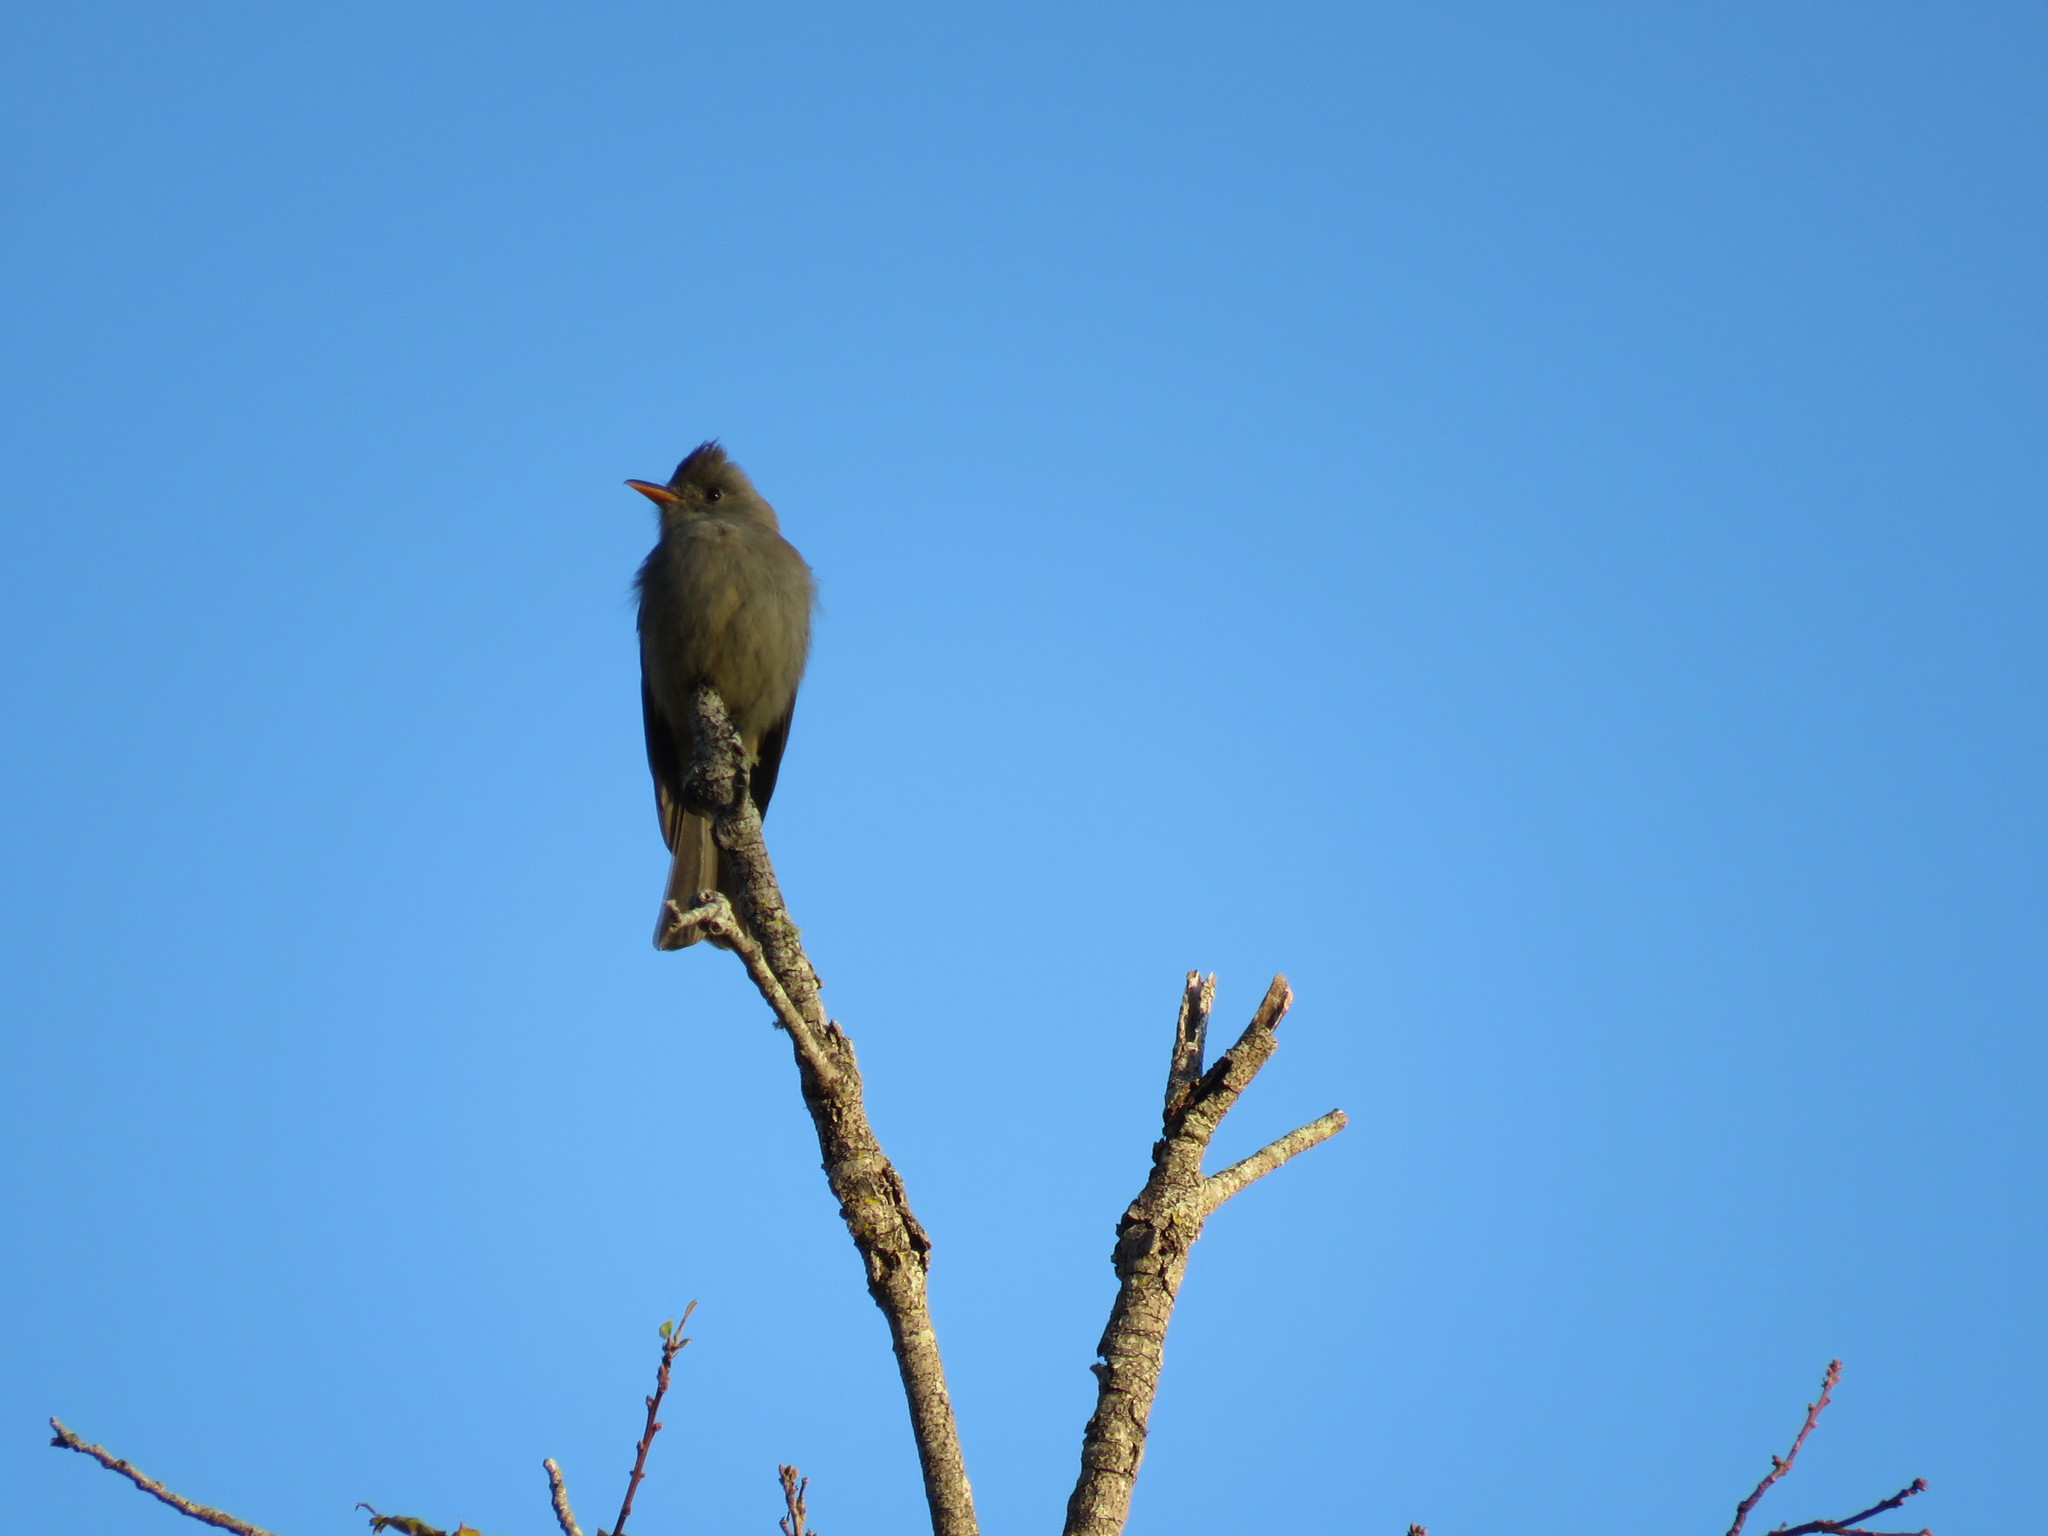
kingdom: Animalia
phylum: Chordata
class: Aves
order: Passeriformes
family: Tyrannidae
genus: Contopus
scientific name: Contopus pertinax
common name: Greater pewee
